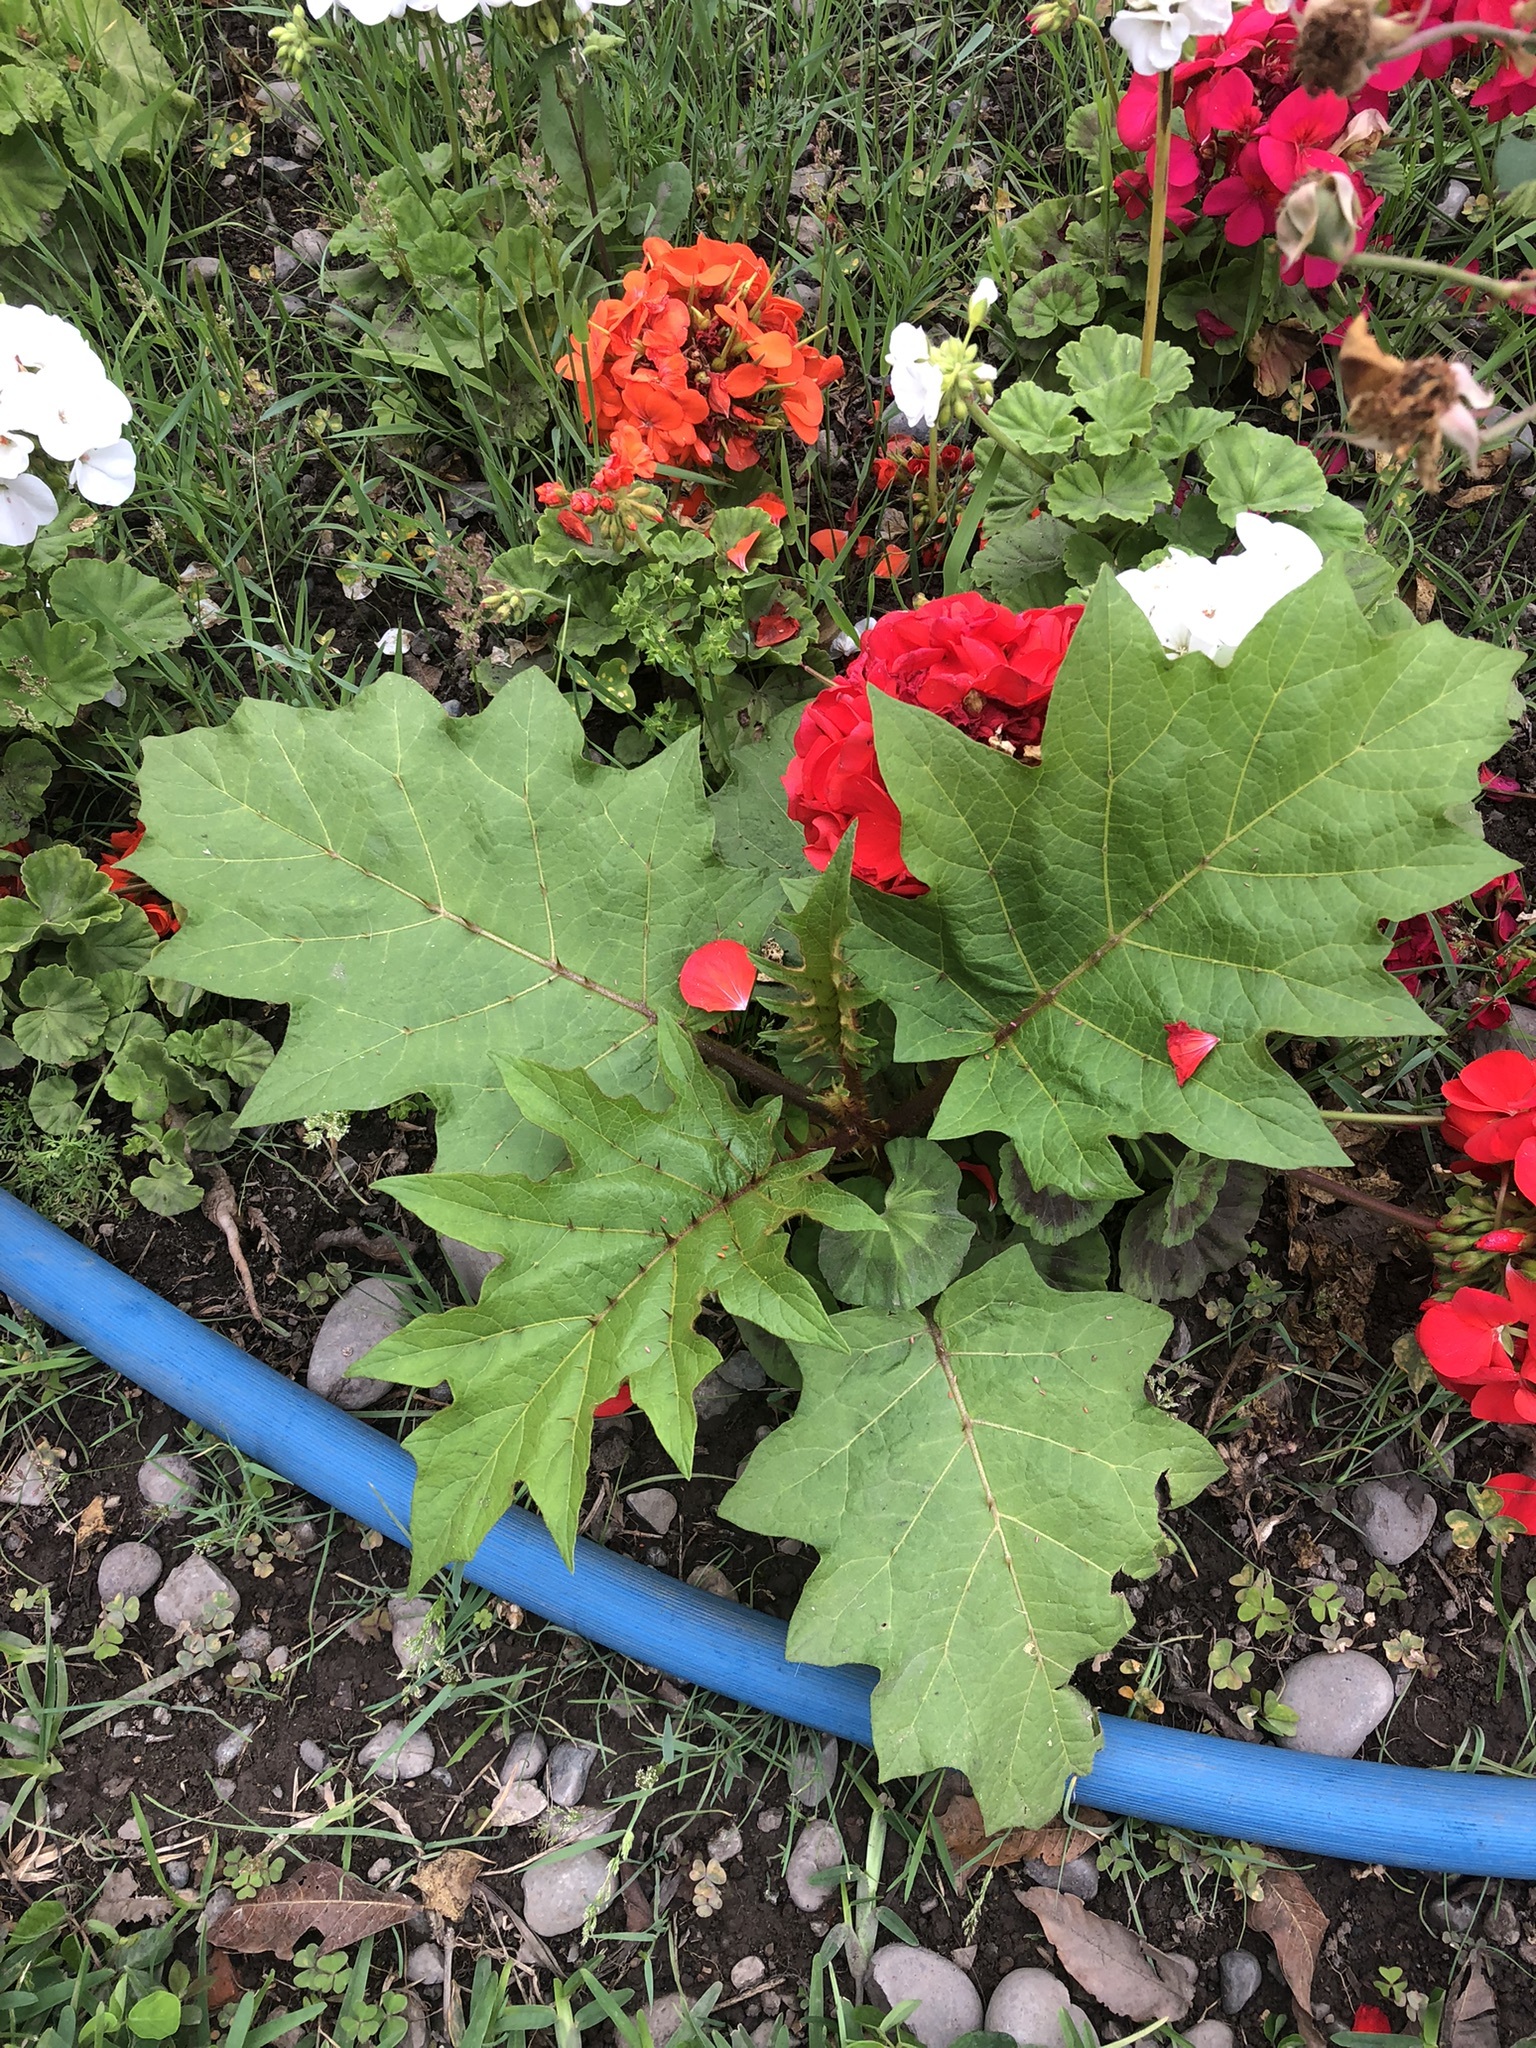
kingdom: Plantae
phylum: Tracheophyta
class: Magnoliopsida
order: Solanales
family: Solanaceae
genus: Solanum
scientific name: Solanum chrysotrichum
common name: Nightshade
